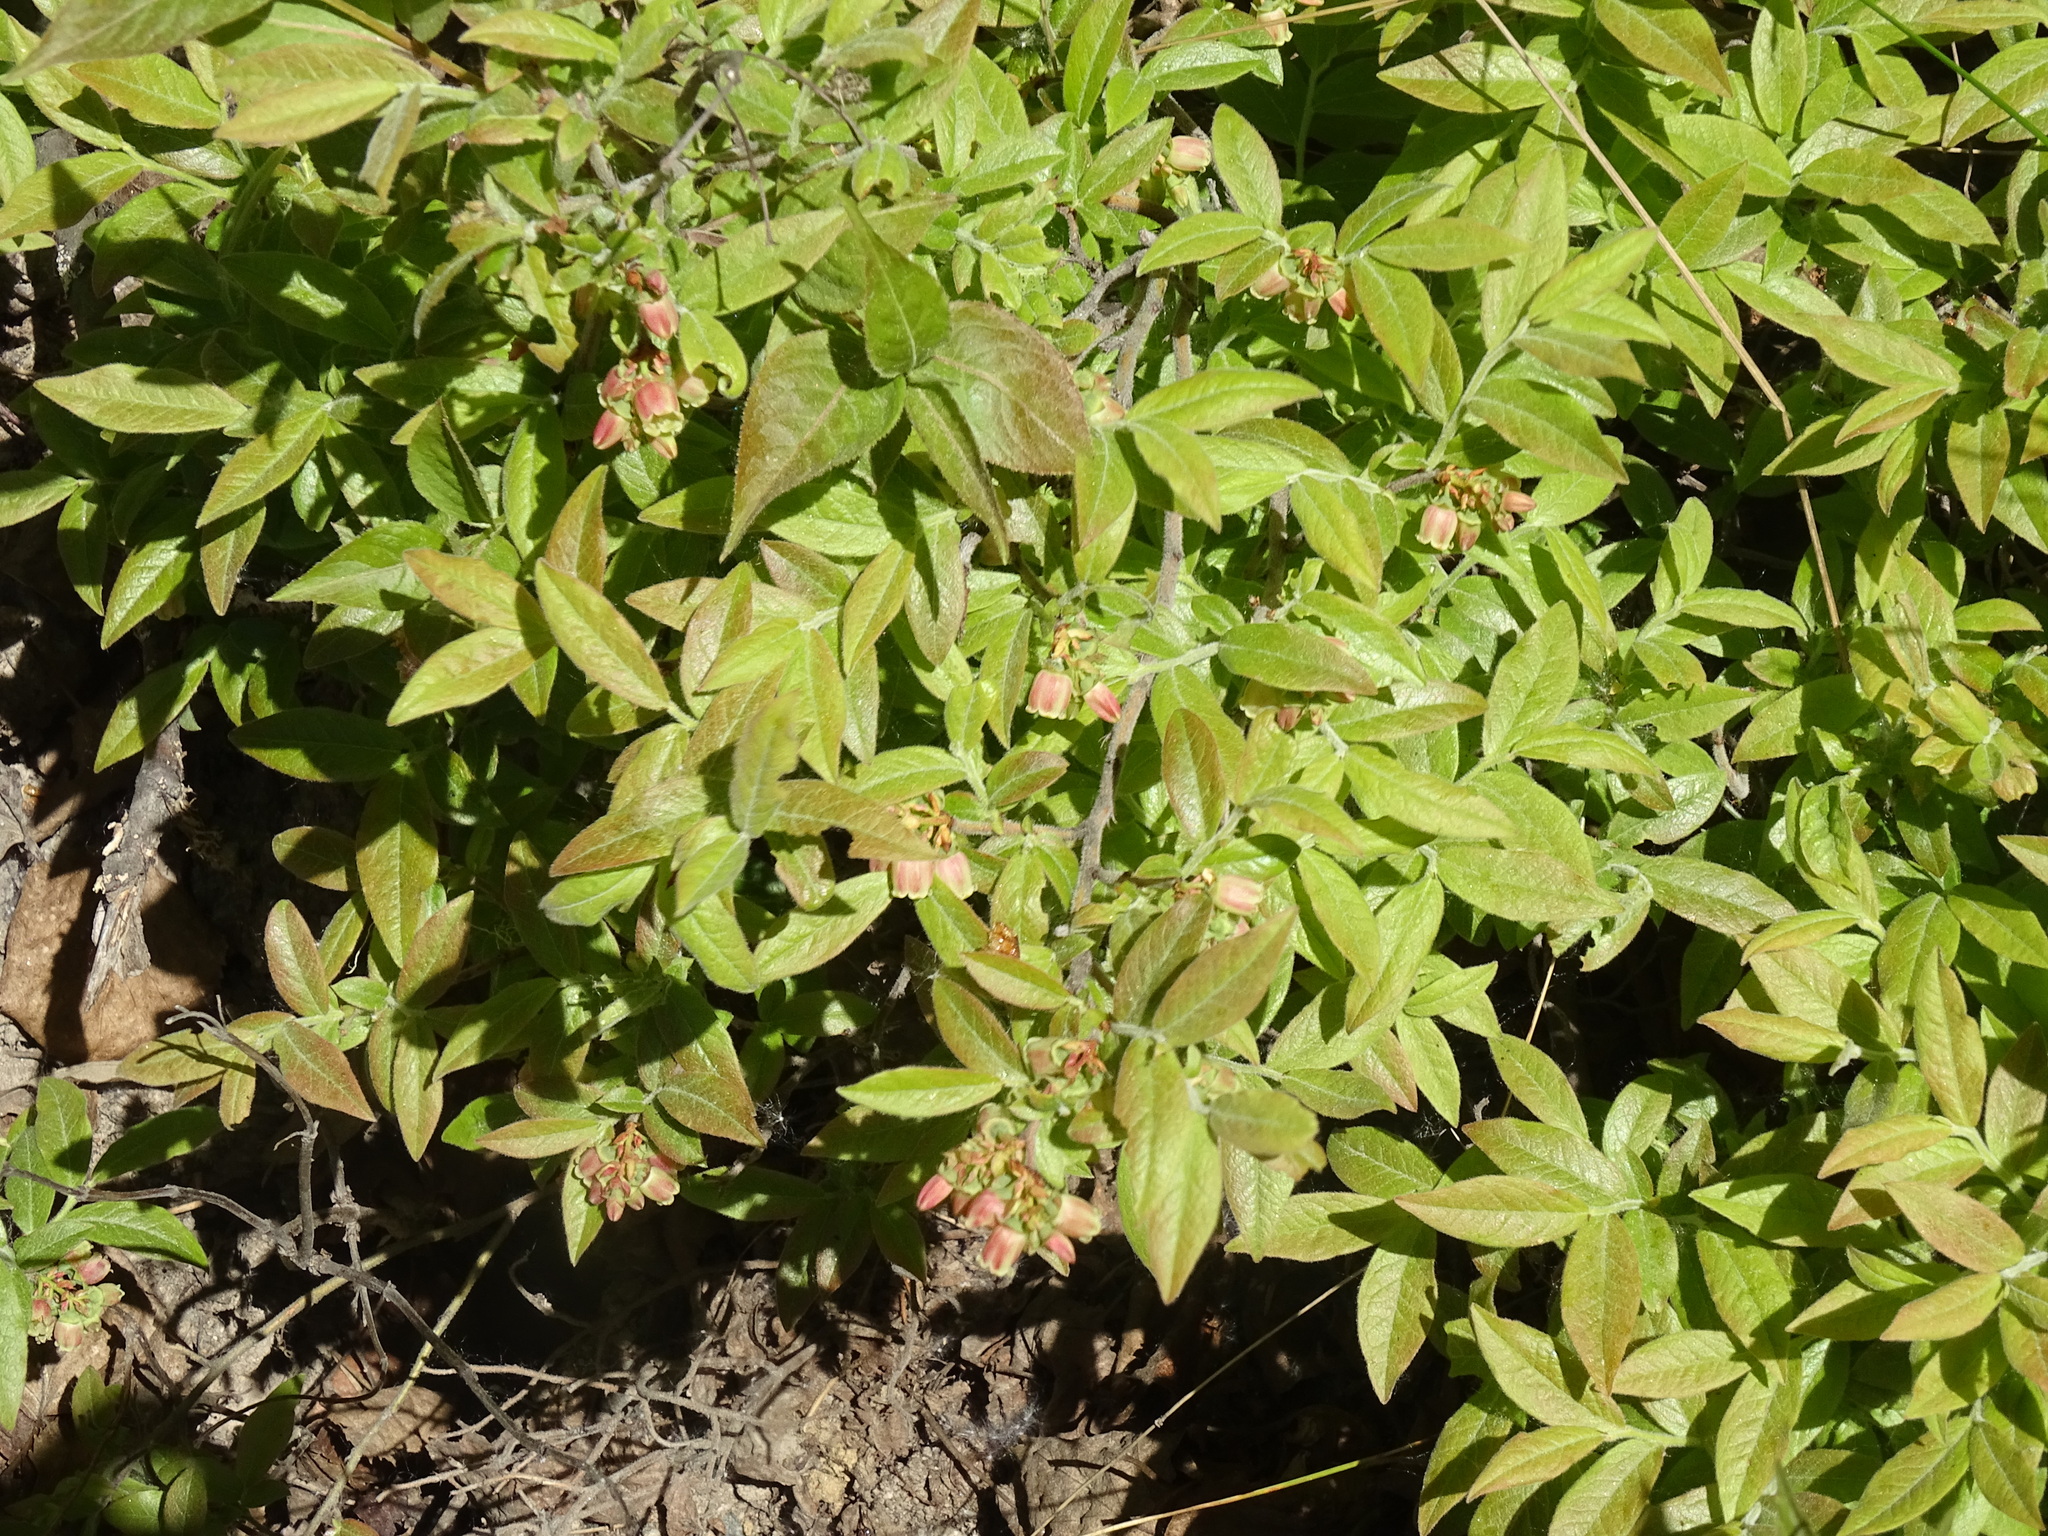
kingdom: Plantae
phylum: Tracheophyta
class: Magnoliopsida
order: Ericales
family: Ericaceae
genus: Vaccinium
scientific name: Vaccinium myrtilloides
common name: Canada blueberry
